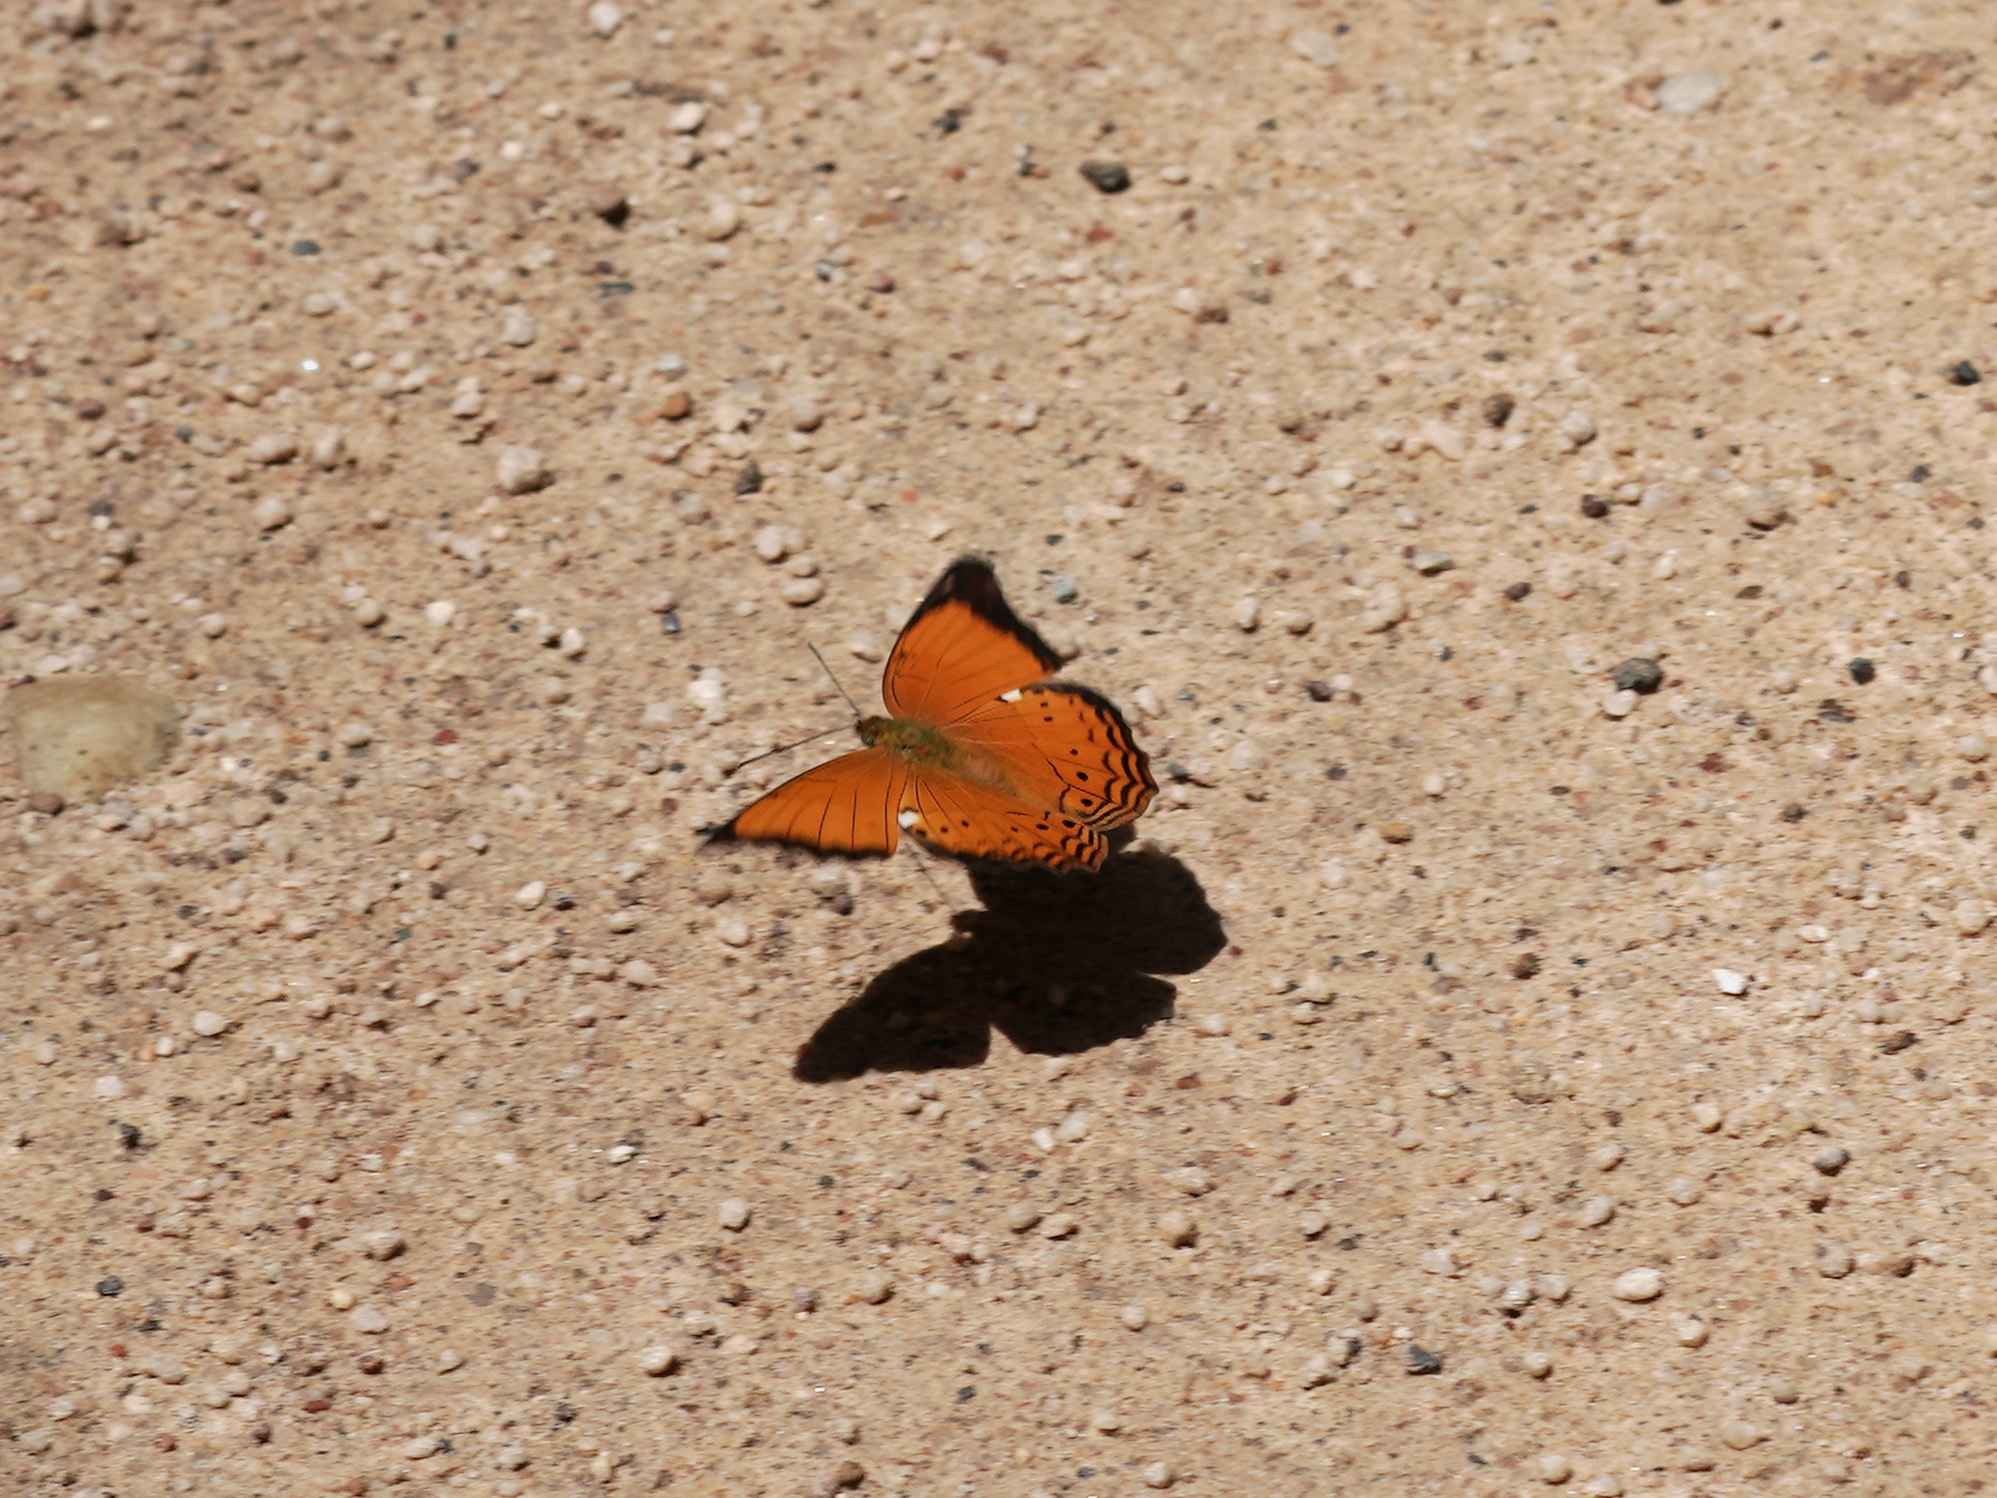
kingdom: Animalia
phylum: Arthropoda
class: Insecta
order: Lepidoptera
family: Nymphalidae
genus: Cirrochroa
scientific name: Cirrochroa emalea
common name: Malay yeoman
